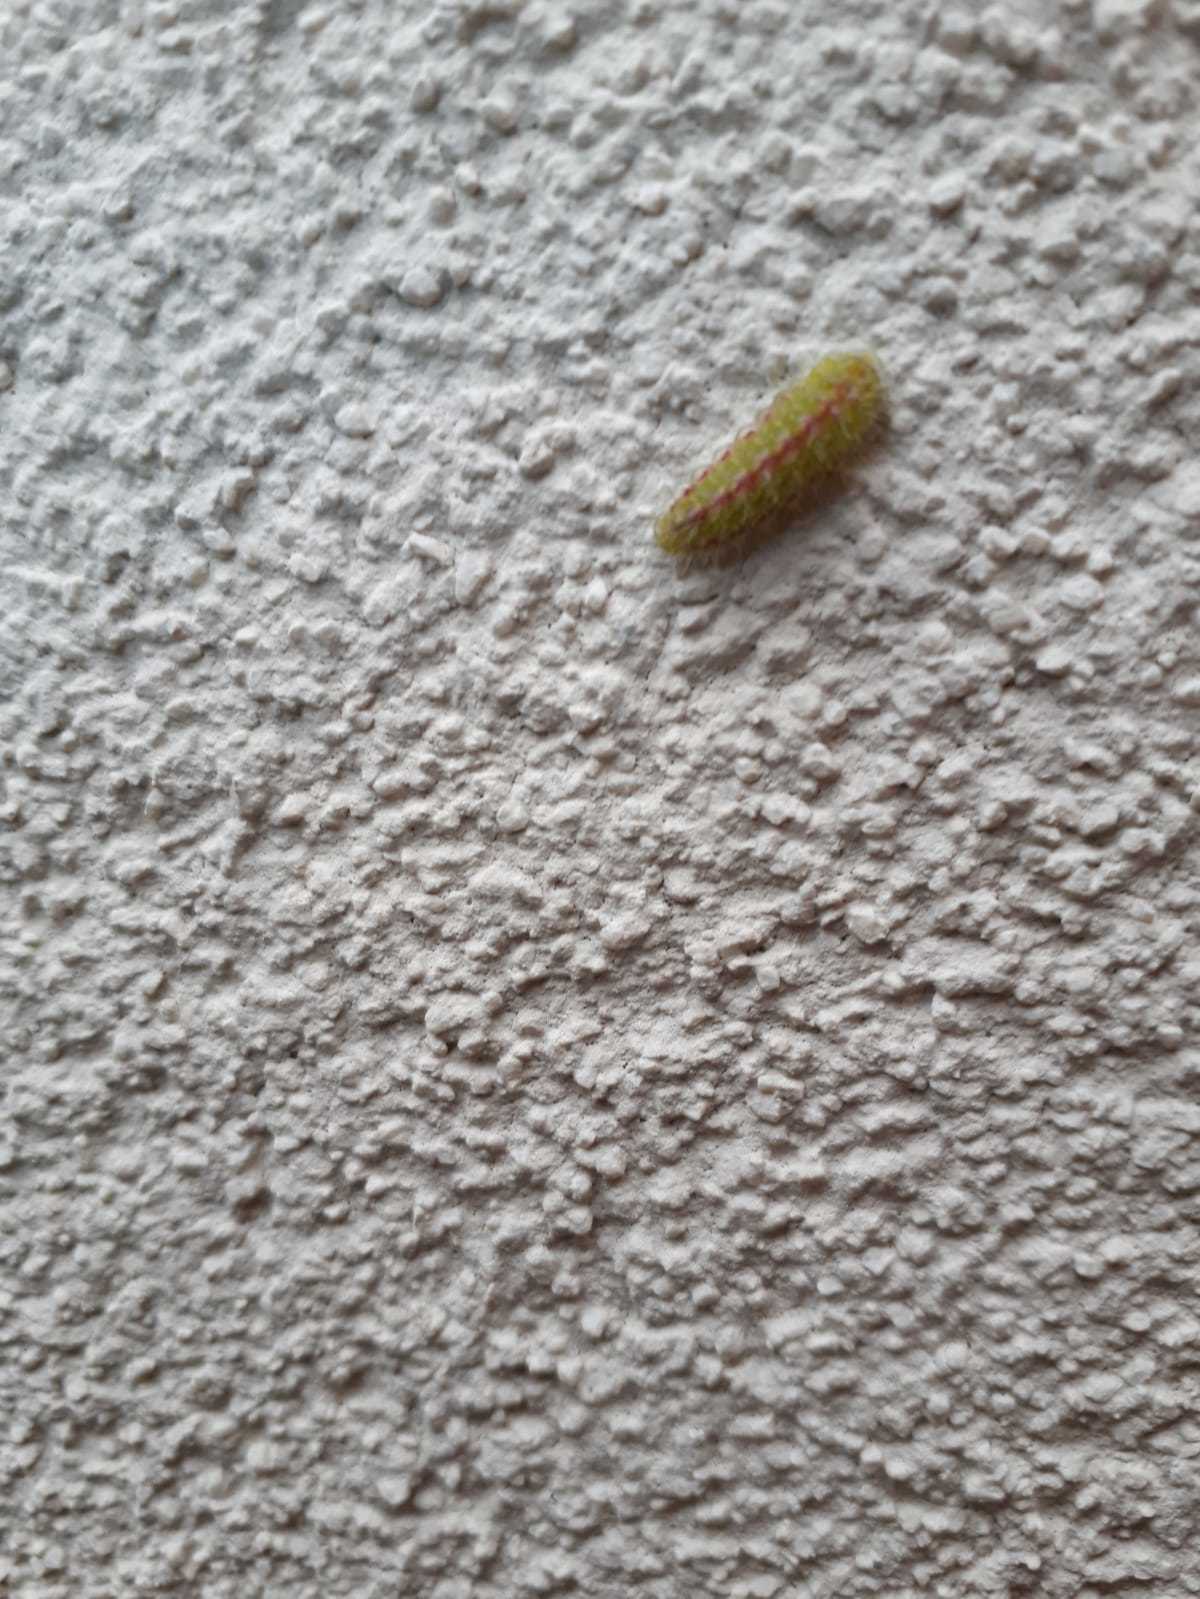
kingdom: Animalia
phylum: Arthropoda
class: Insecta
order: Lepidoptera
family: Lycaenidae
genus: Cacyreus
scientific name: Cacyreus marshalli
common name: Geranium bronze
